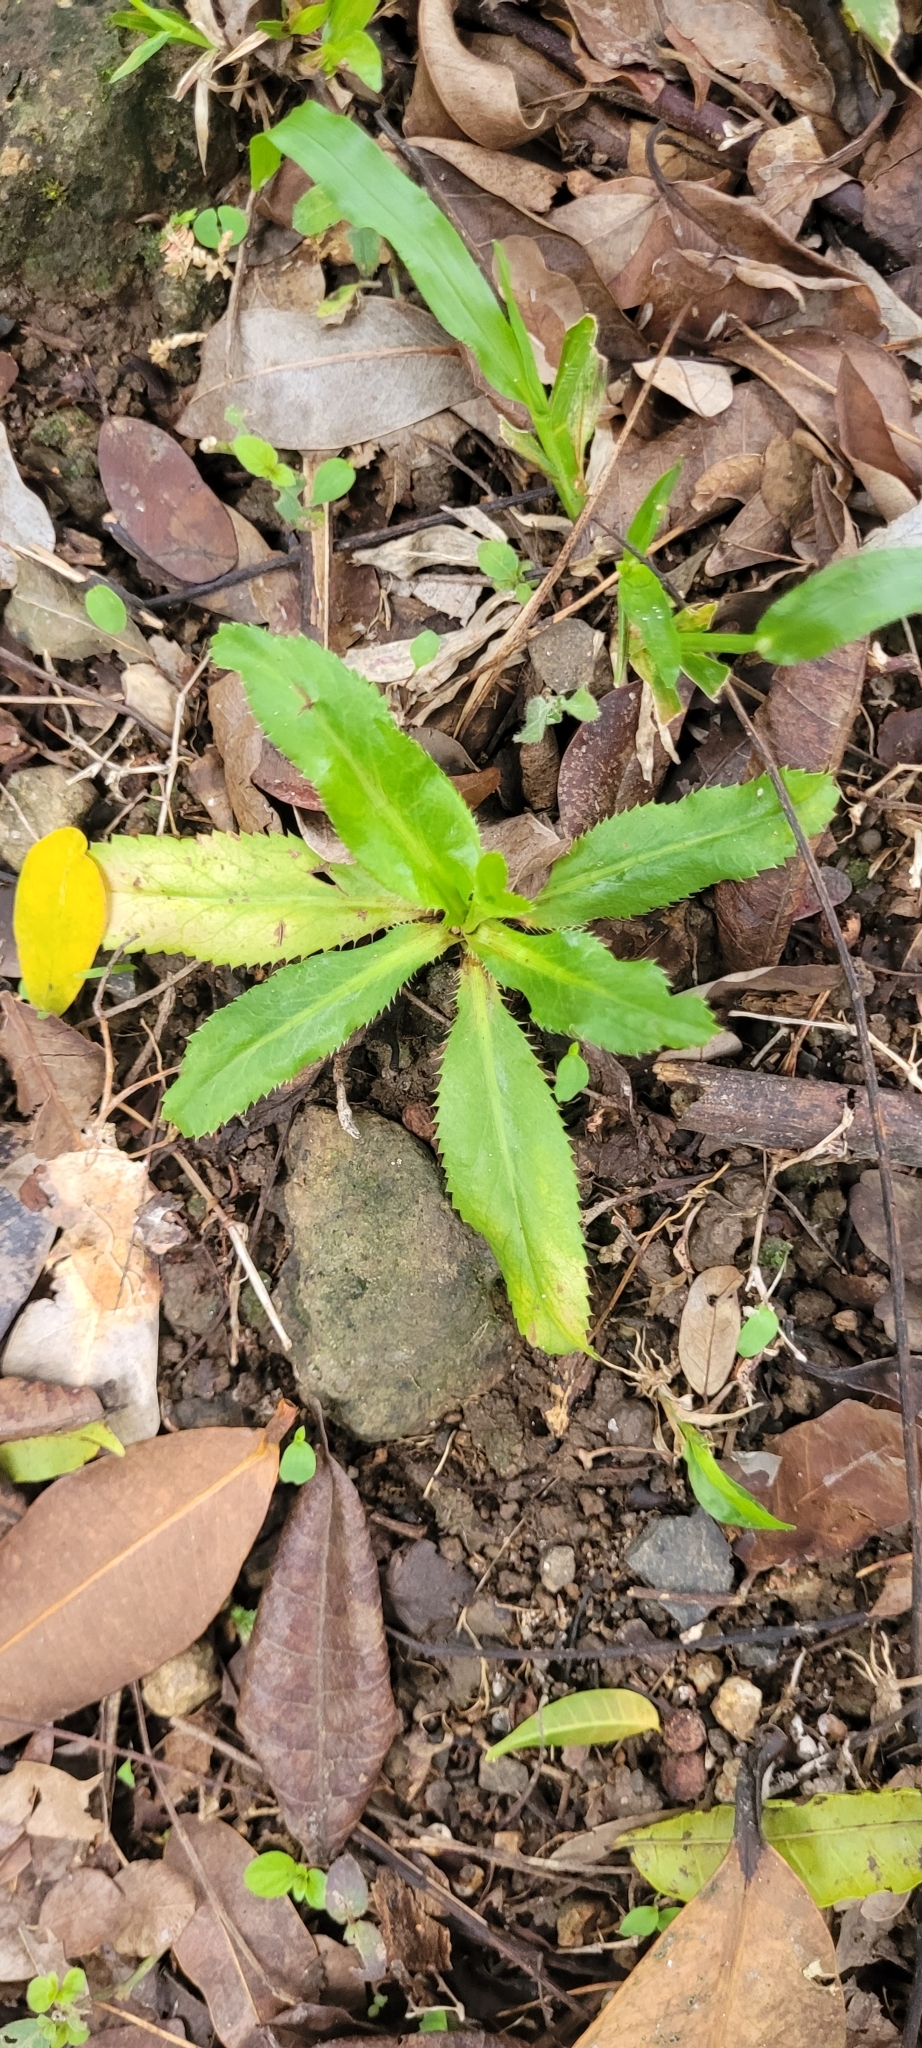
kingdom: Plantae
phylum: Tracheophyta
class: Magnoliopsida
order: Apiales
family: Apiaceae
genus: Eryngium
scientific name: Eryngium foetidum
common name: Fitweed
